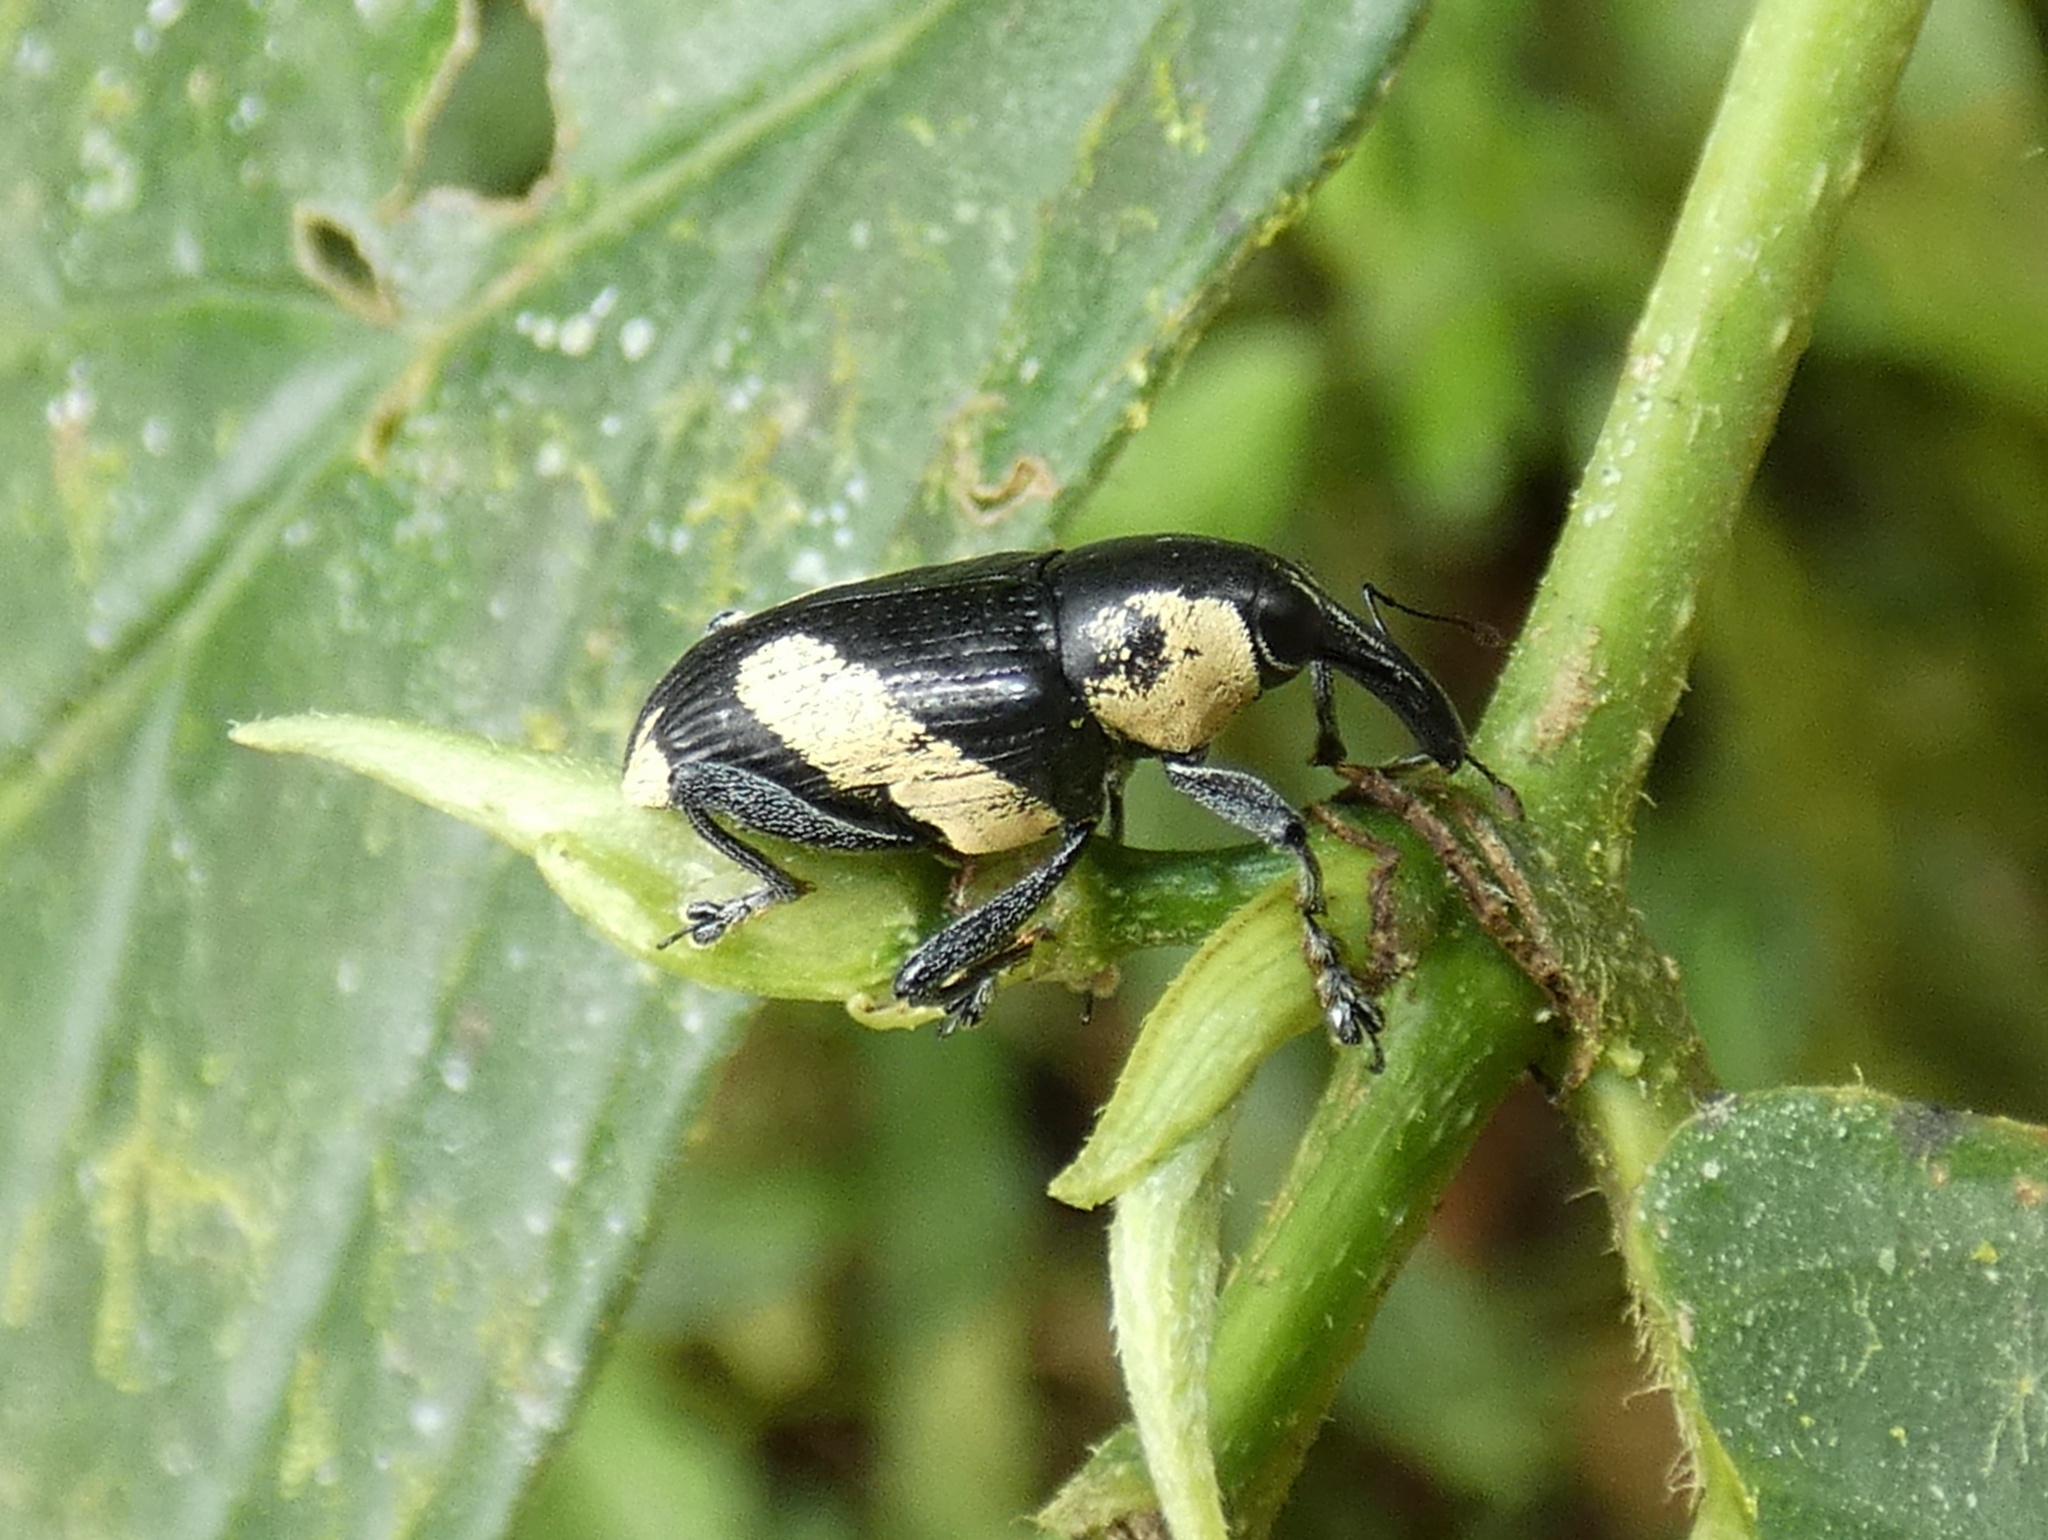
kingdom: Animalia
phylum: Arthropoda
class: Insecta
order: Coleoptera
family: Curculionidae
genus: Peridinetus
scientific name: Peridinetus cretaceus
